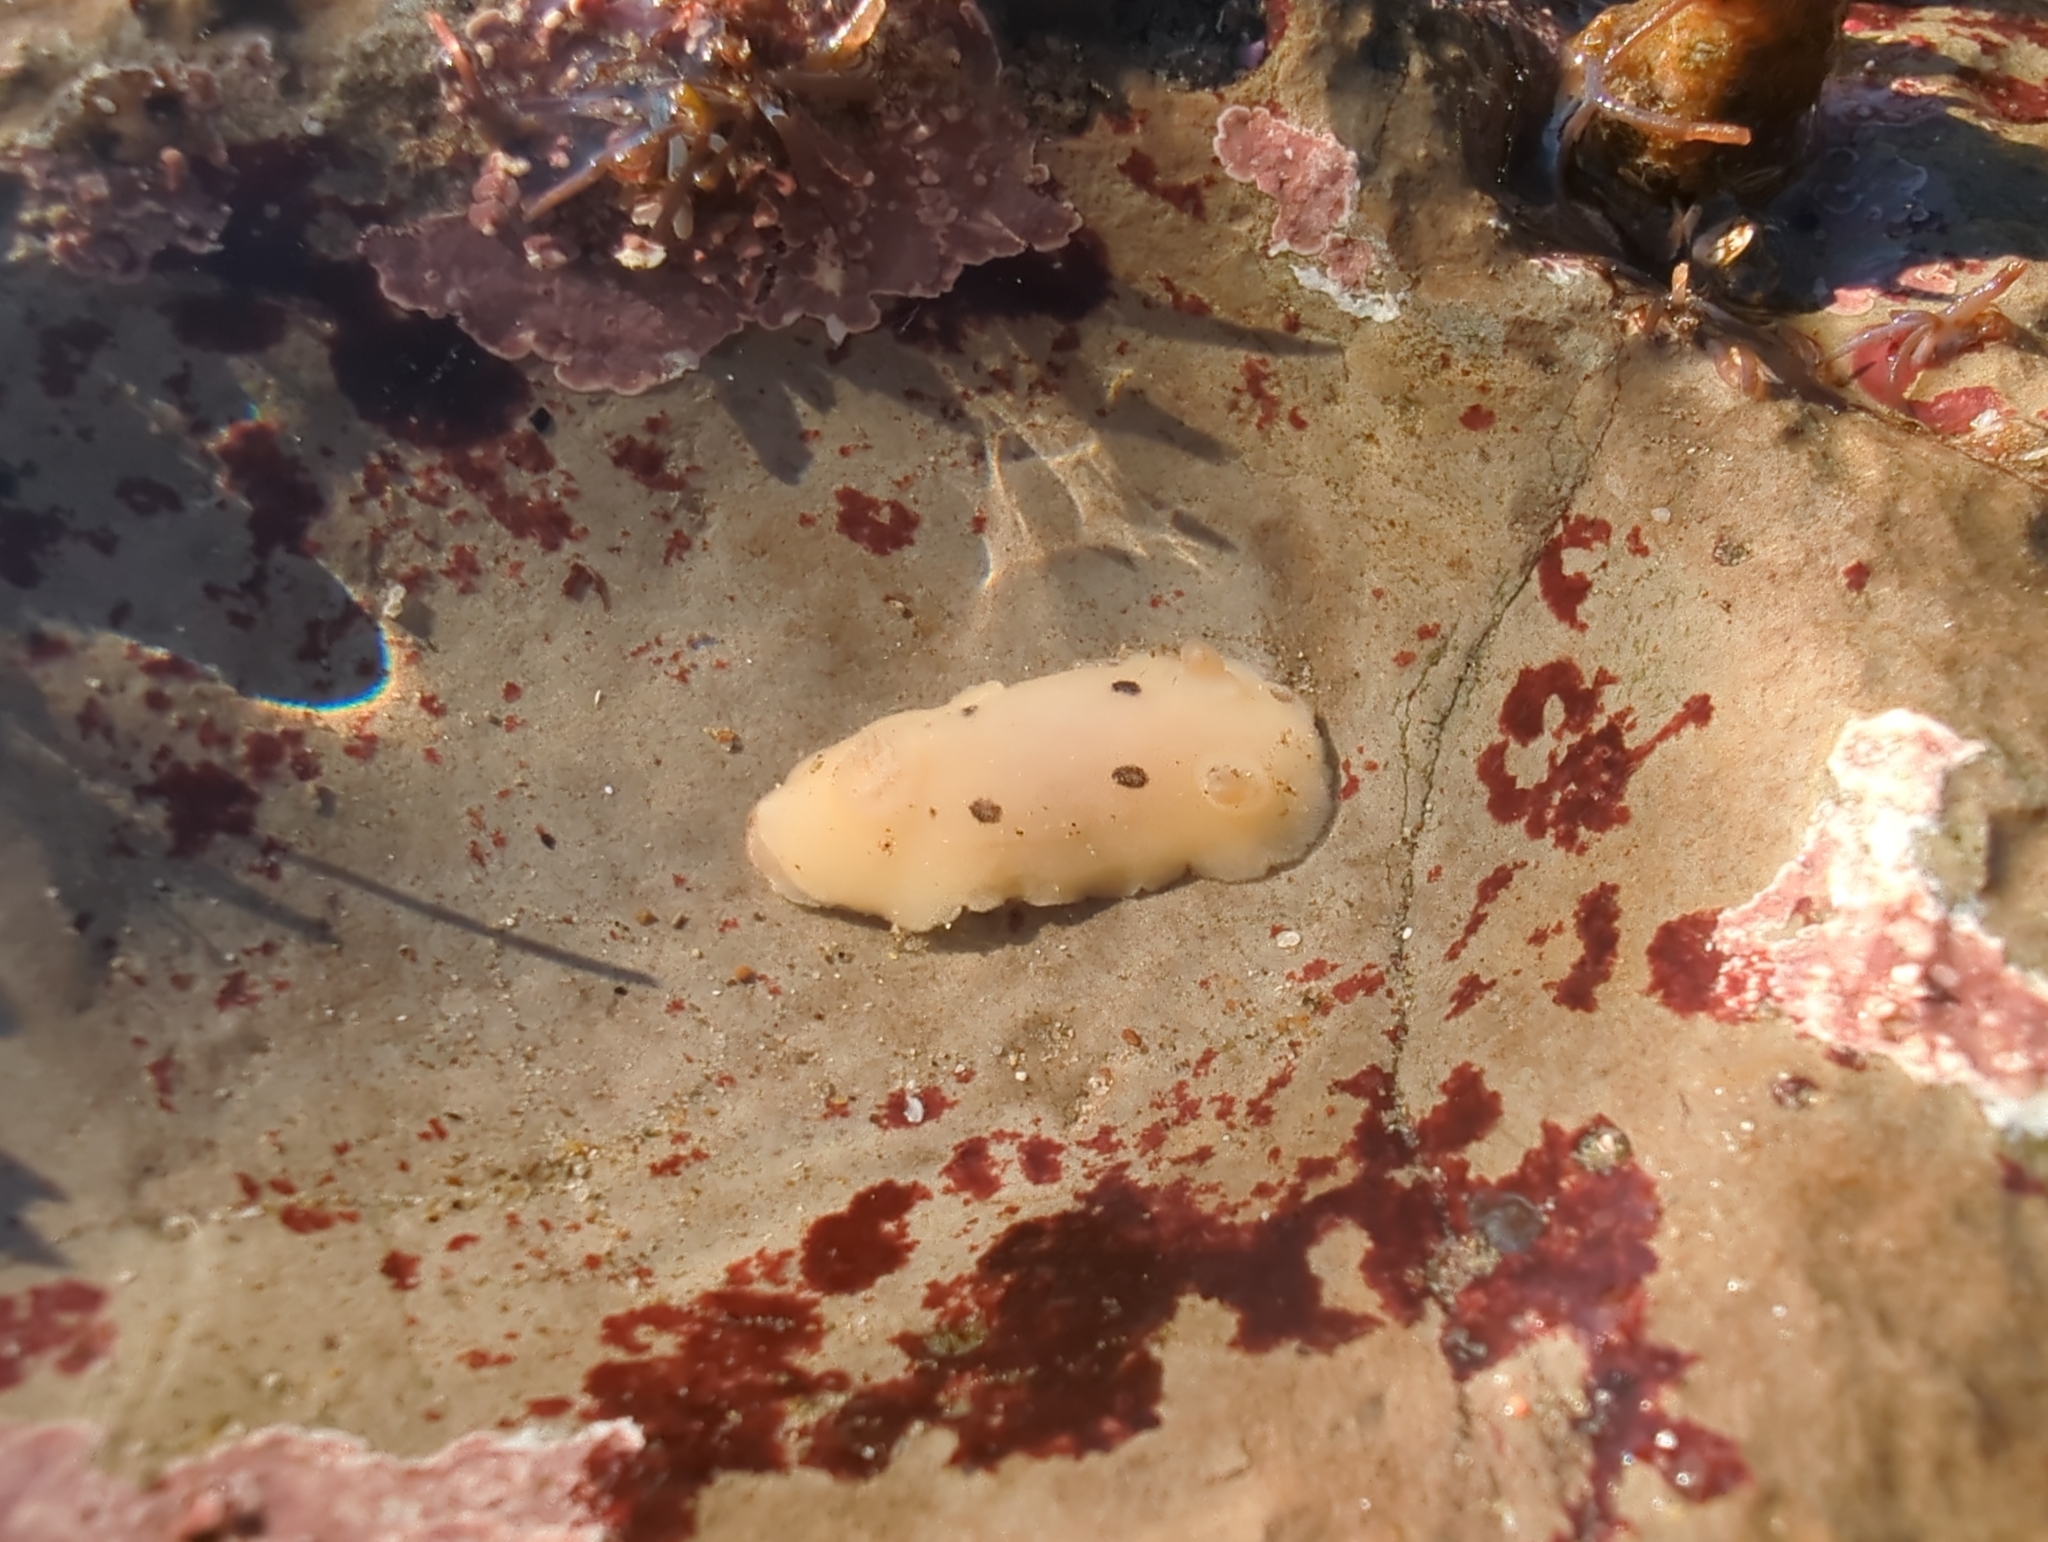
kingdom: Animalia
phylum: Mollusca
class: Gastropoda
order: Nudibranchia
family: Discodorididae
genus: Diaulula
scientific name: Diaulula sandiegensis
